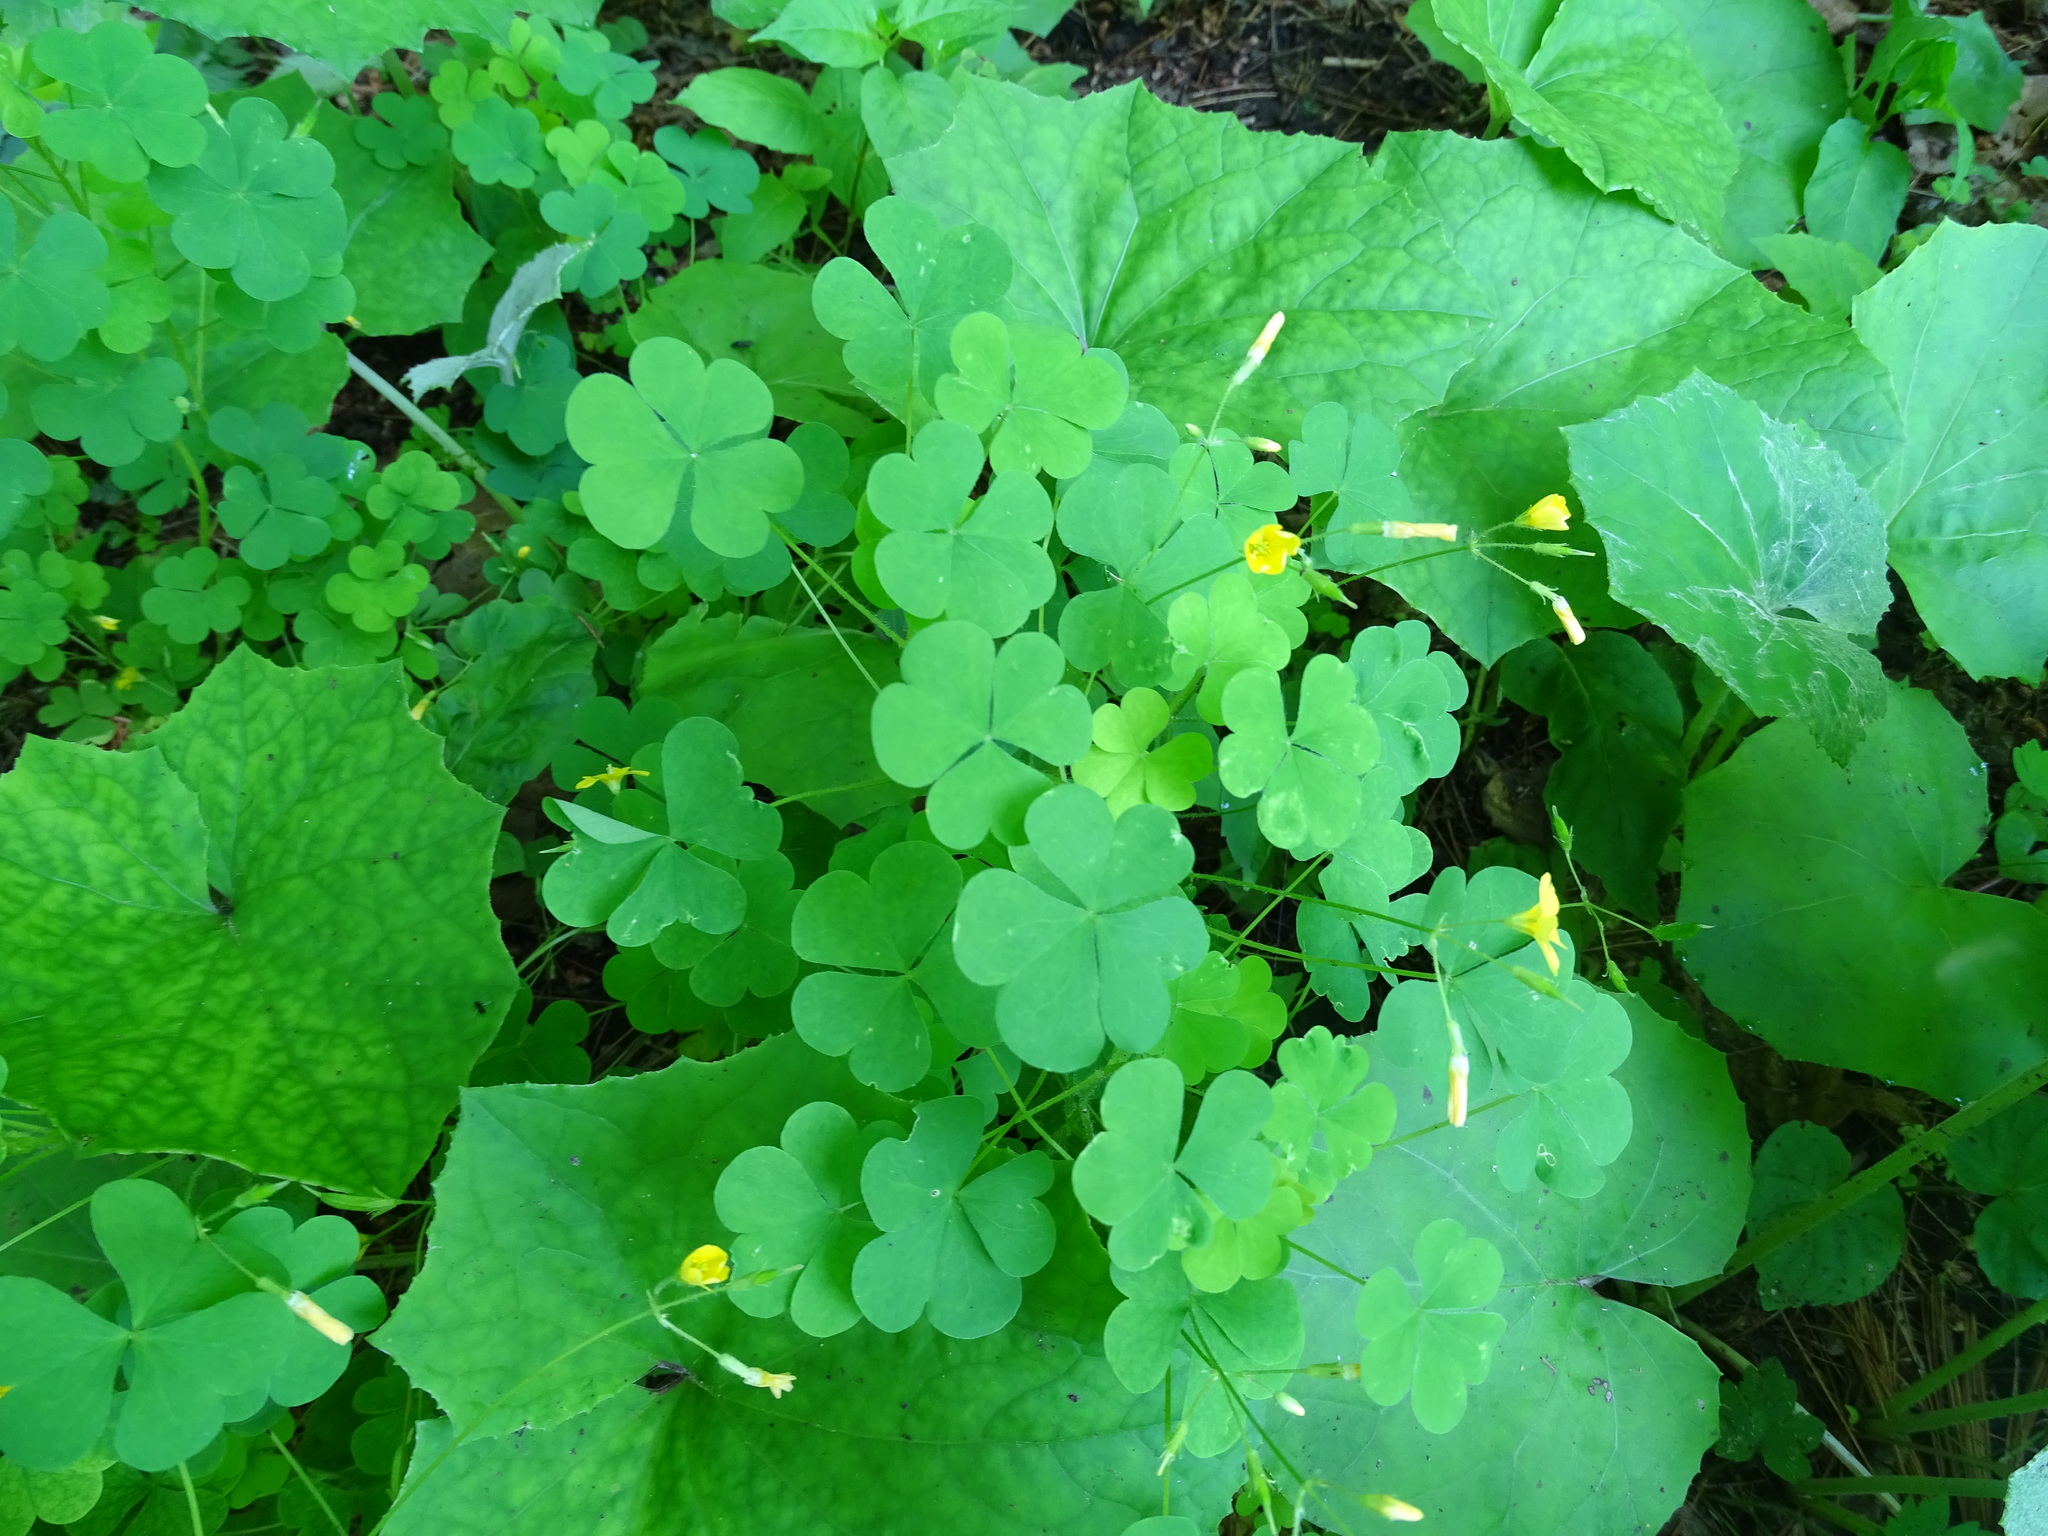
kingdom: Plantae
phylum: Tracheophyta
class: Magnoliopsida
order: Oxalidales
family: Oxalidaceae
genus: Oxalis
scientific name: Oxalis stricta
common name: Upright yellow-sorrel
